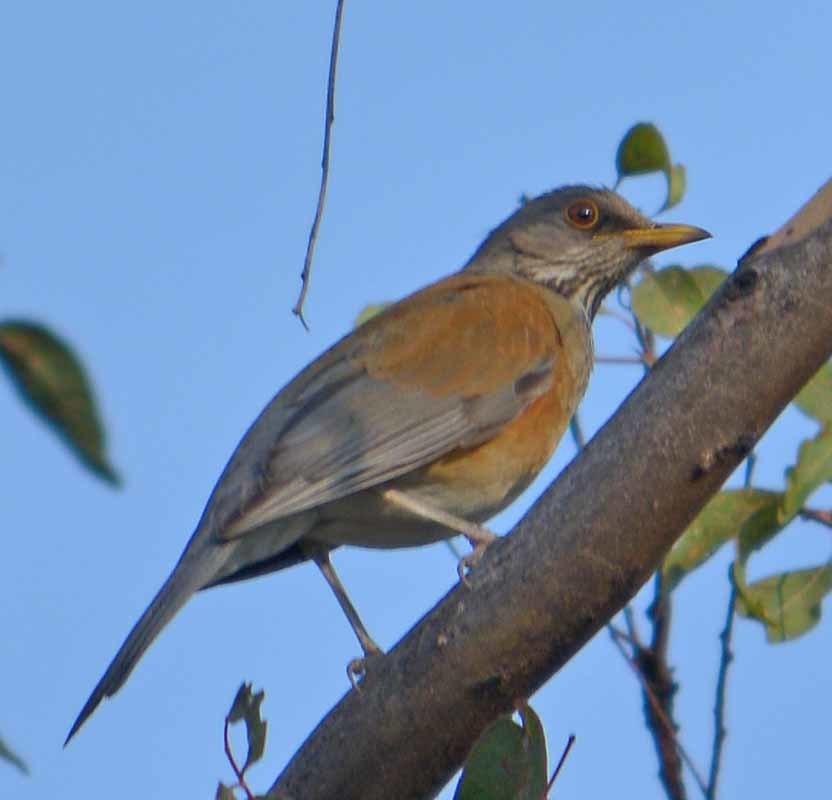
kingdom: Animalia
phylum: Chordata
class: Aves
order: Passeriformes
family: Turdidae
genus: Turdus
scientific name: Turdus rufopalliatus
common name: Rufous-backed robin
